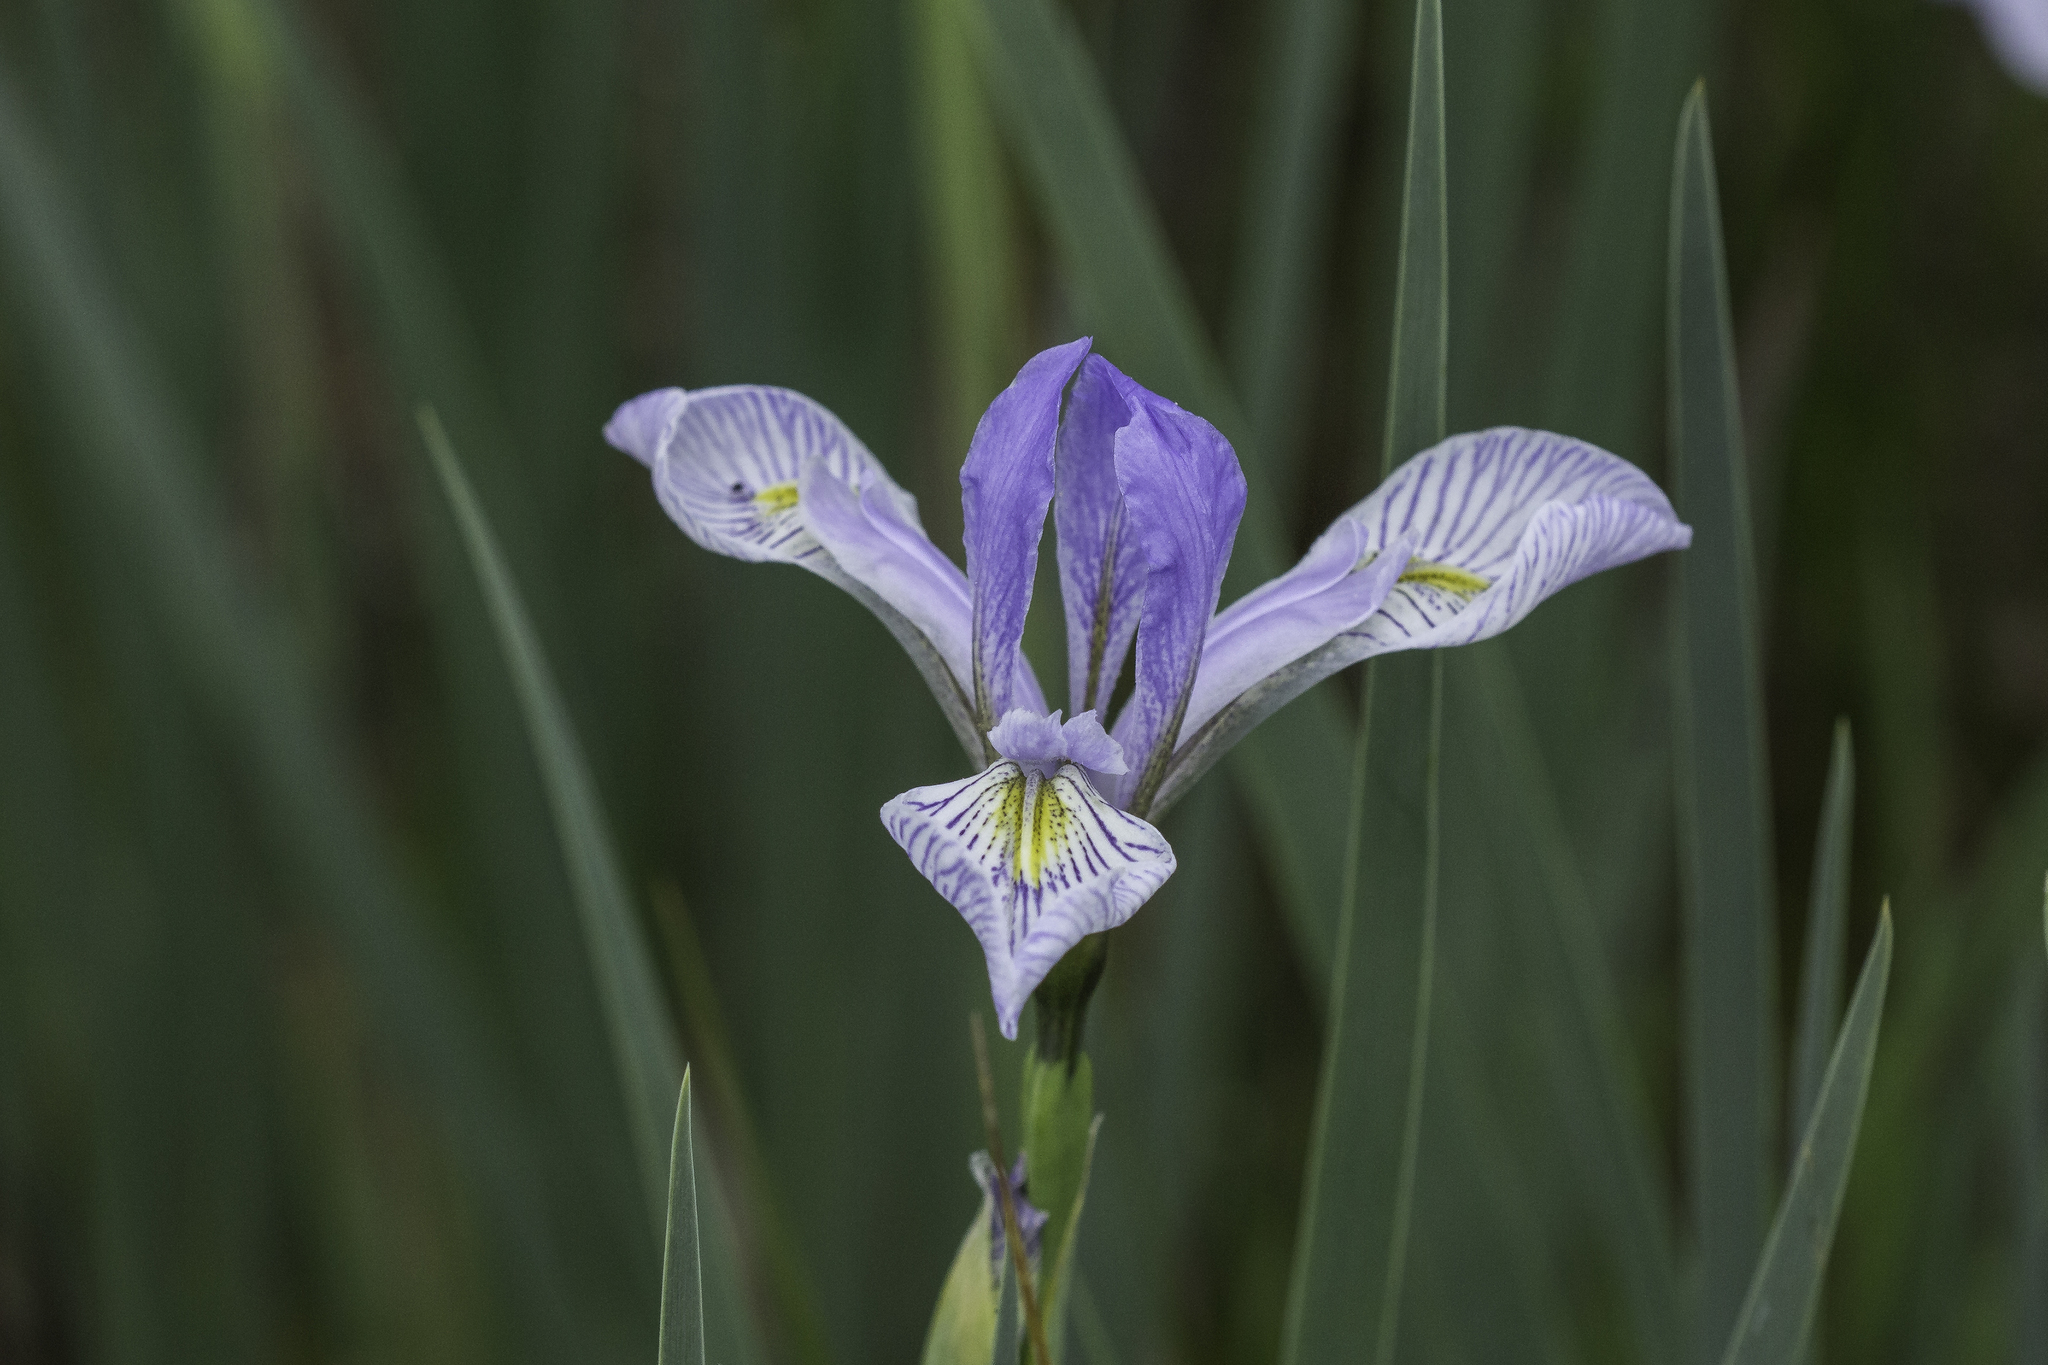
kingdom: Plantae
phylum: Tracheophyta
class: Liliopsida
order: Asparagales
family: Iridaceae
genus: Iris
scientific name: Iris missouriensis
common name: Rocky mountain iris
